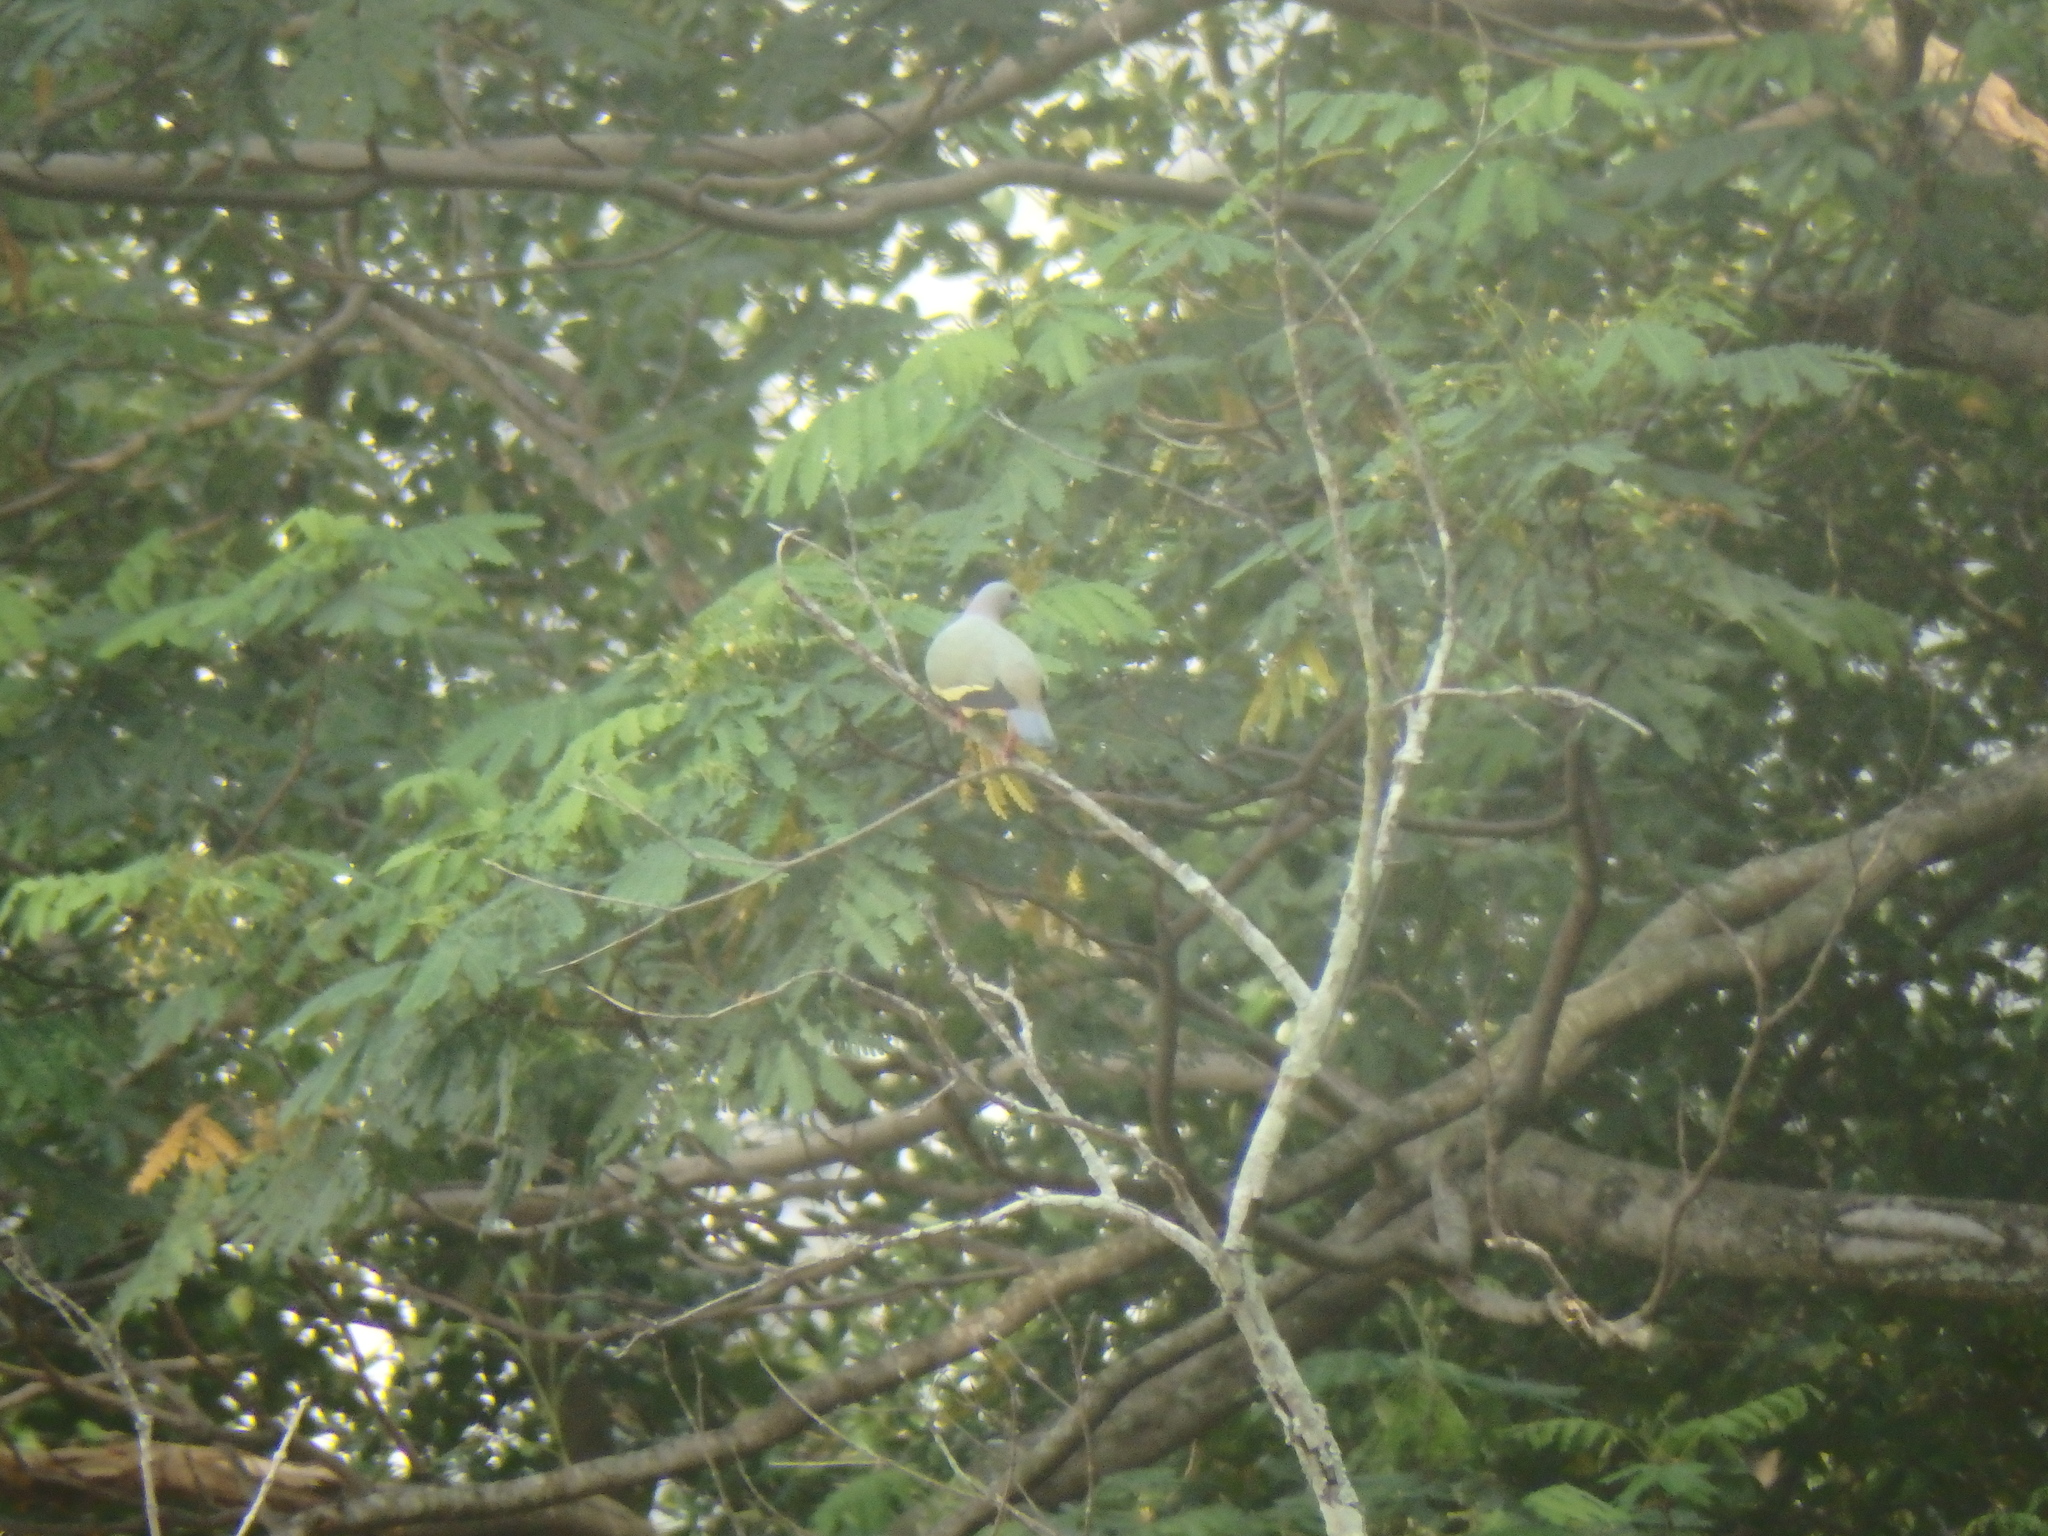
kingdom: Animalia
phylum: Chordata
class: Aves
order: Columbiformes
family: Columbidae
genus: Treron
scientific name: Treron vernans
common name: Pink-necked green pigeon
